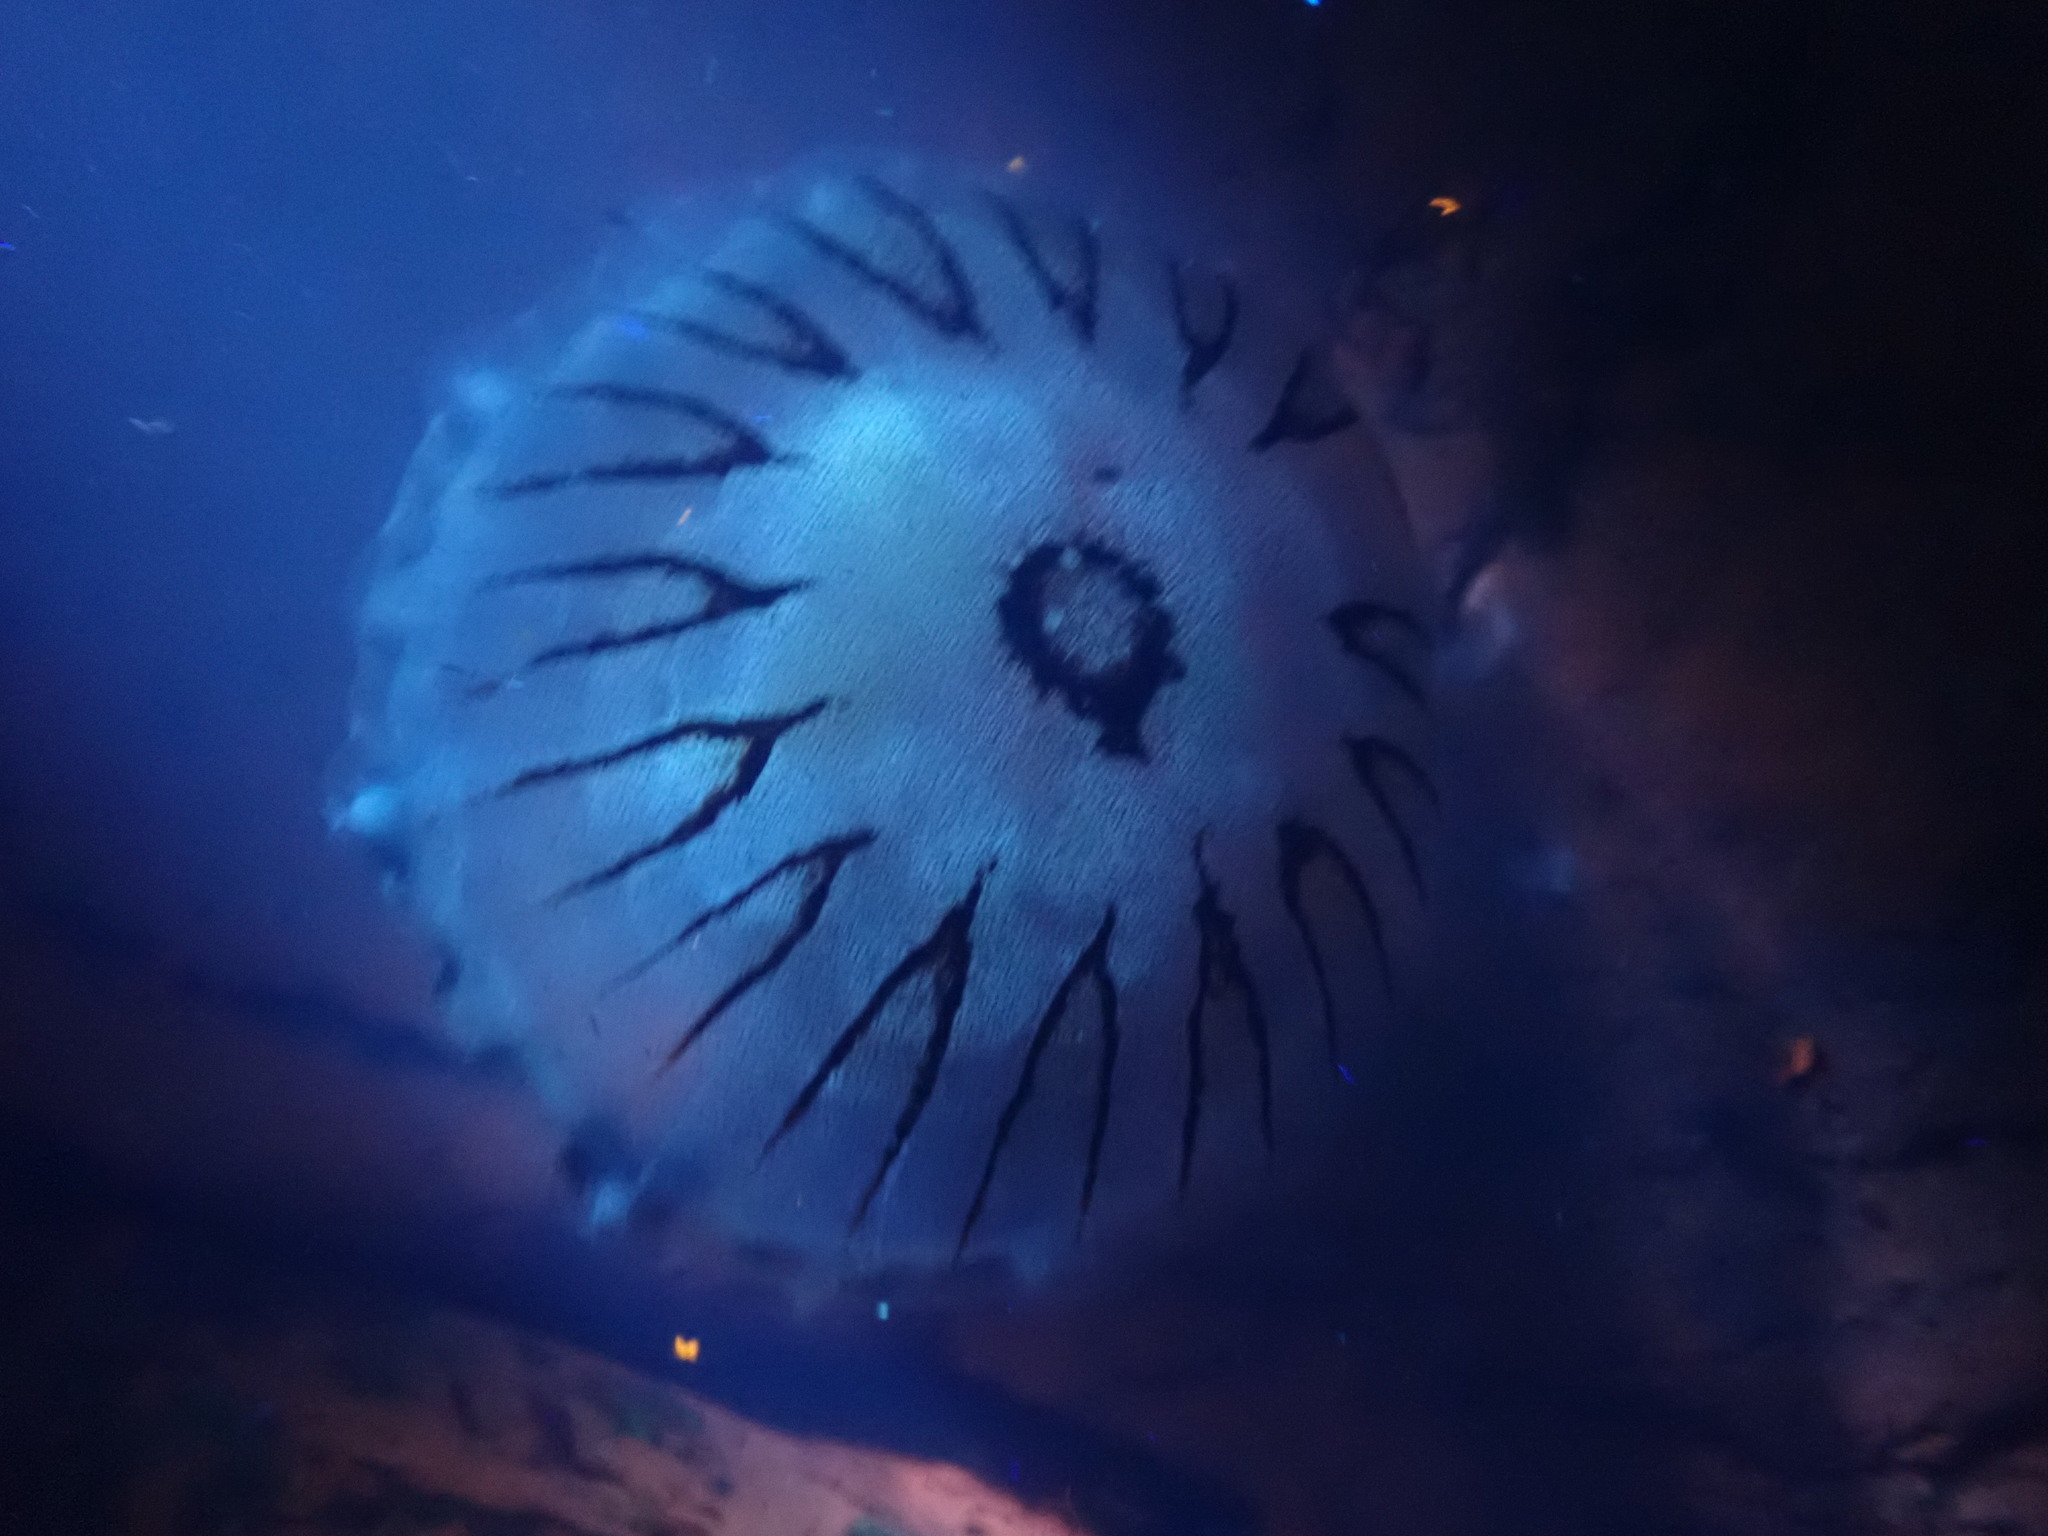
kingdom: Animalia
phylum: Cnidaria
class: Scyphozoa
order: Semaeostomeae
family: Pelagiidae
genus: Chrysaora
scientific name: Chrysaora hysoscella
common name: Compass jellyfish
